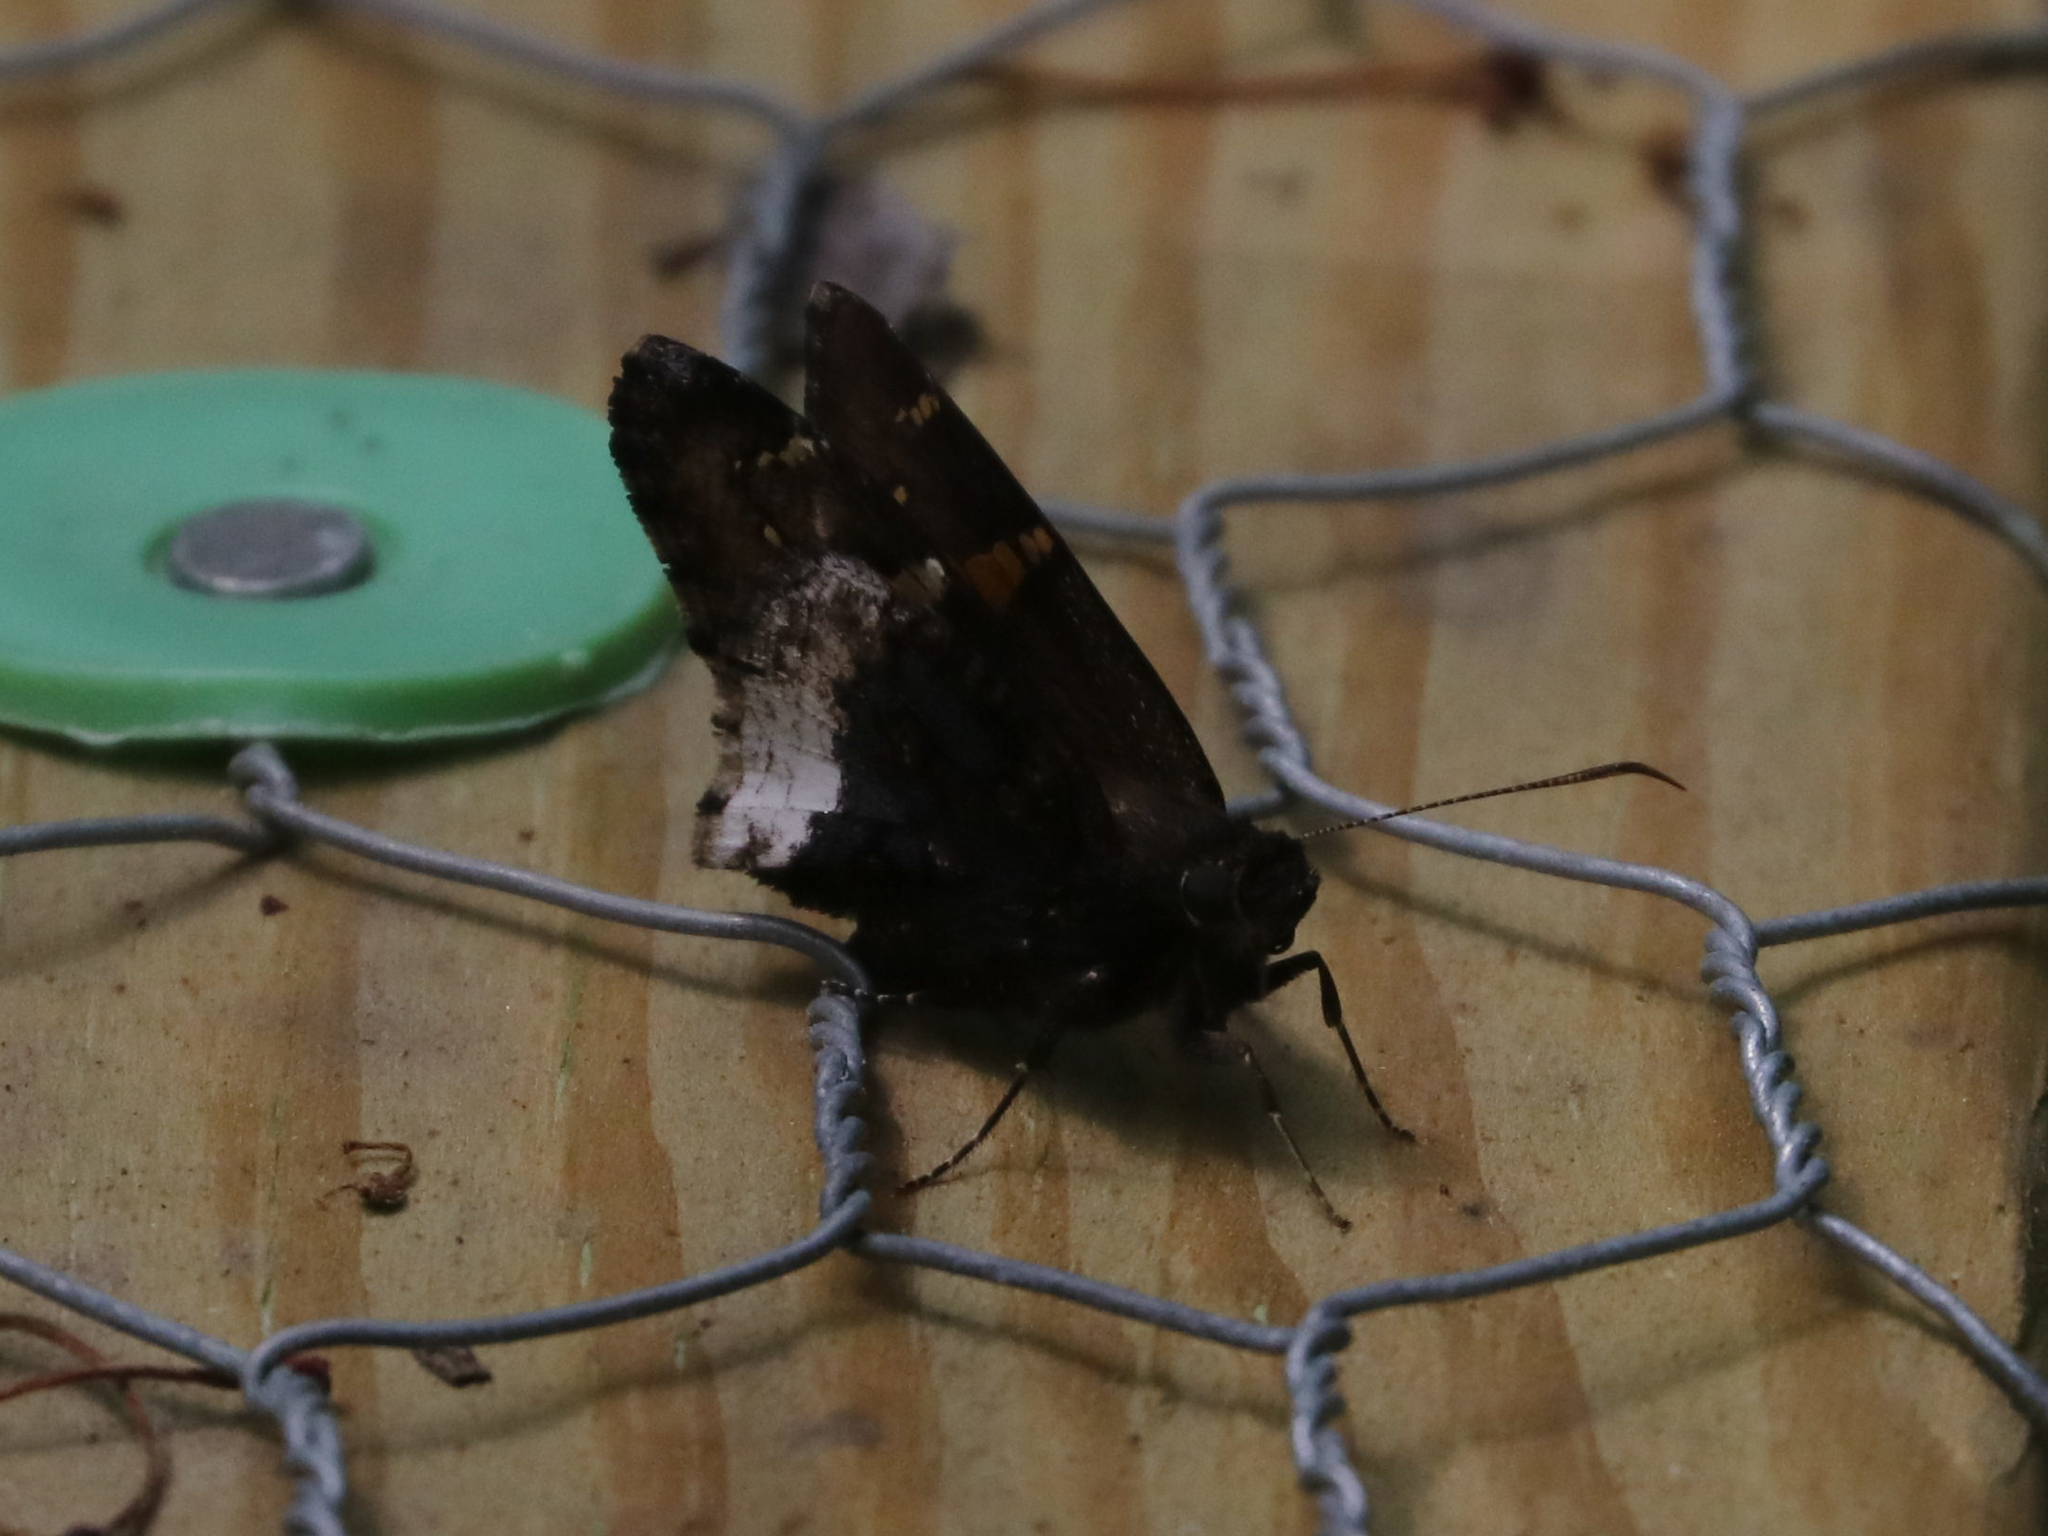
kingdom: Animalia
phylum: Arthropoda
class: Insecta
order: Lepidoptera
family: Hesperiidae
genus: Thorybes
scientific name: Thorybes lyciades
